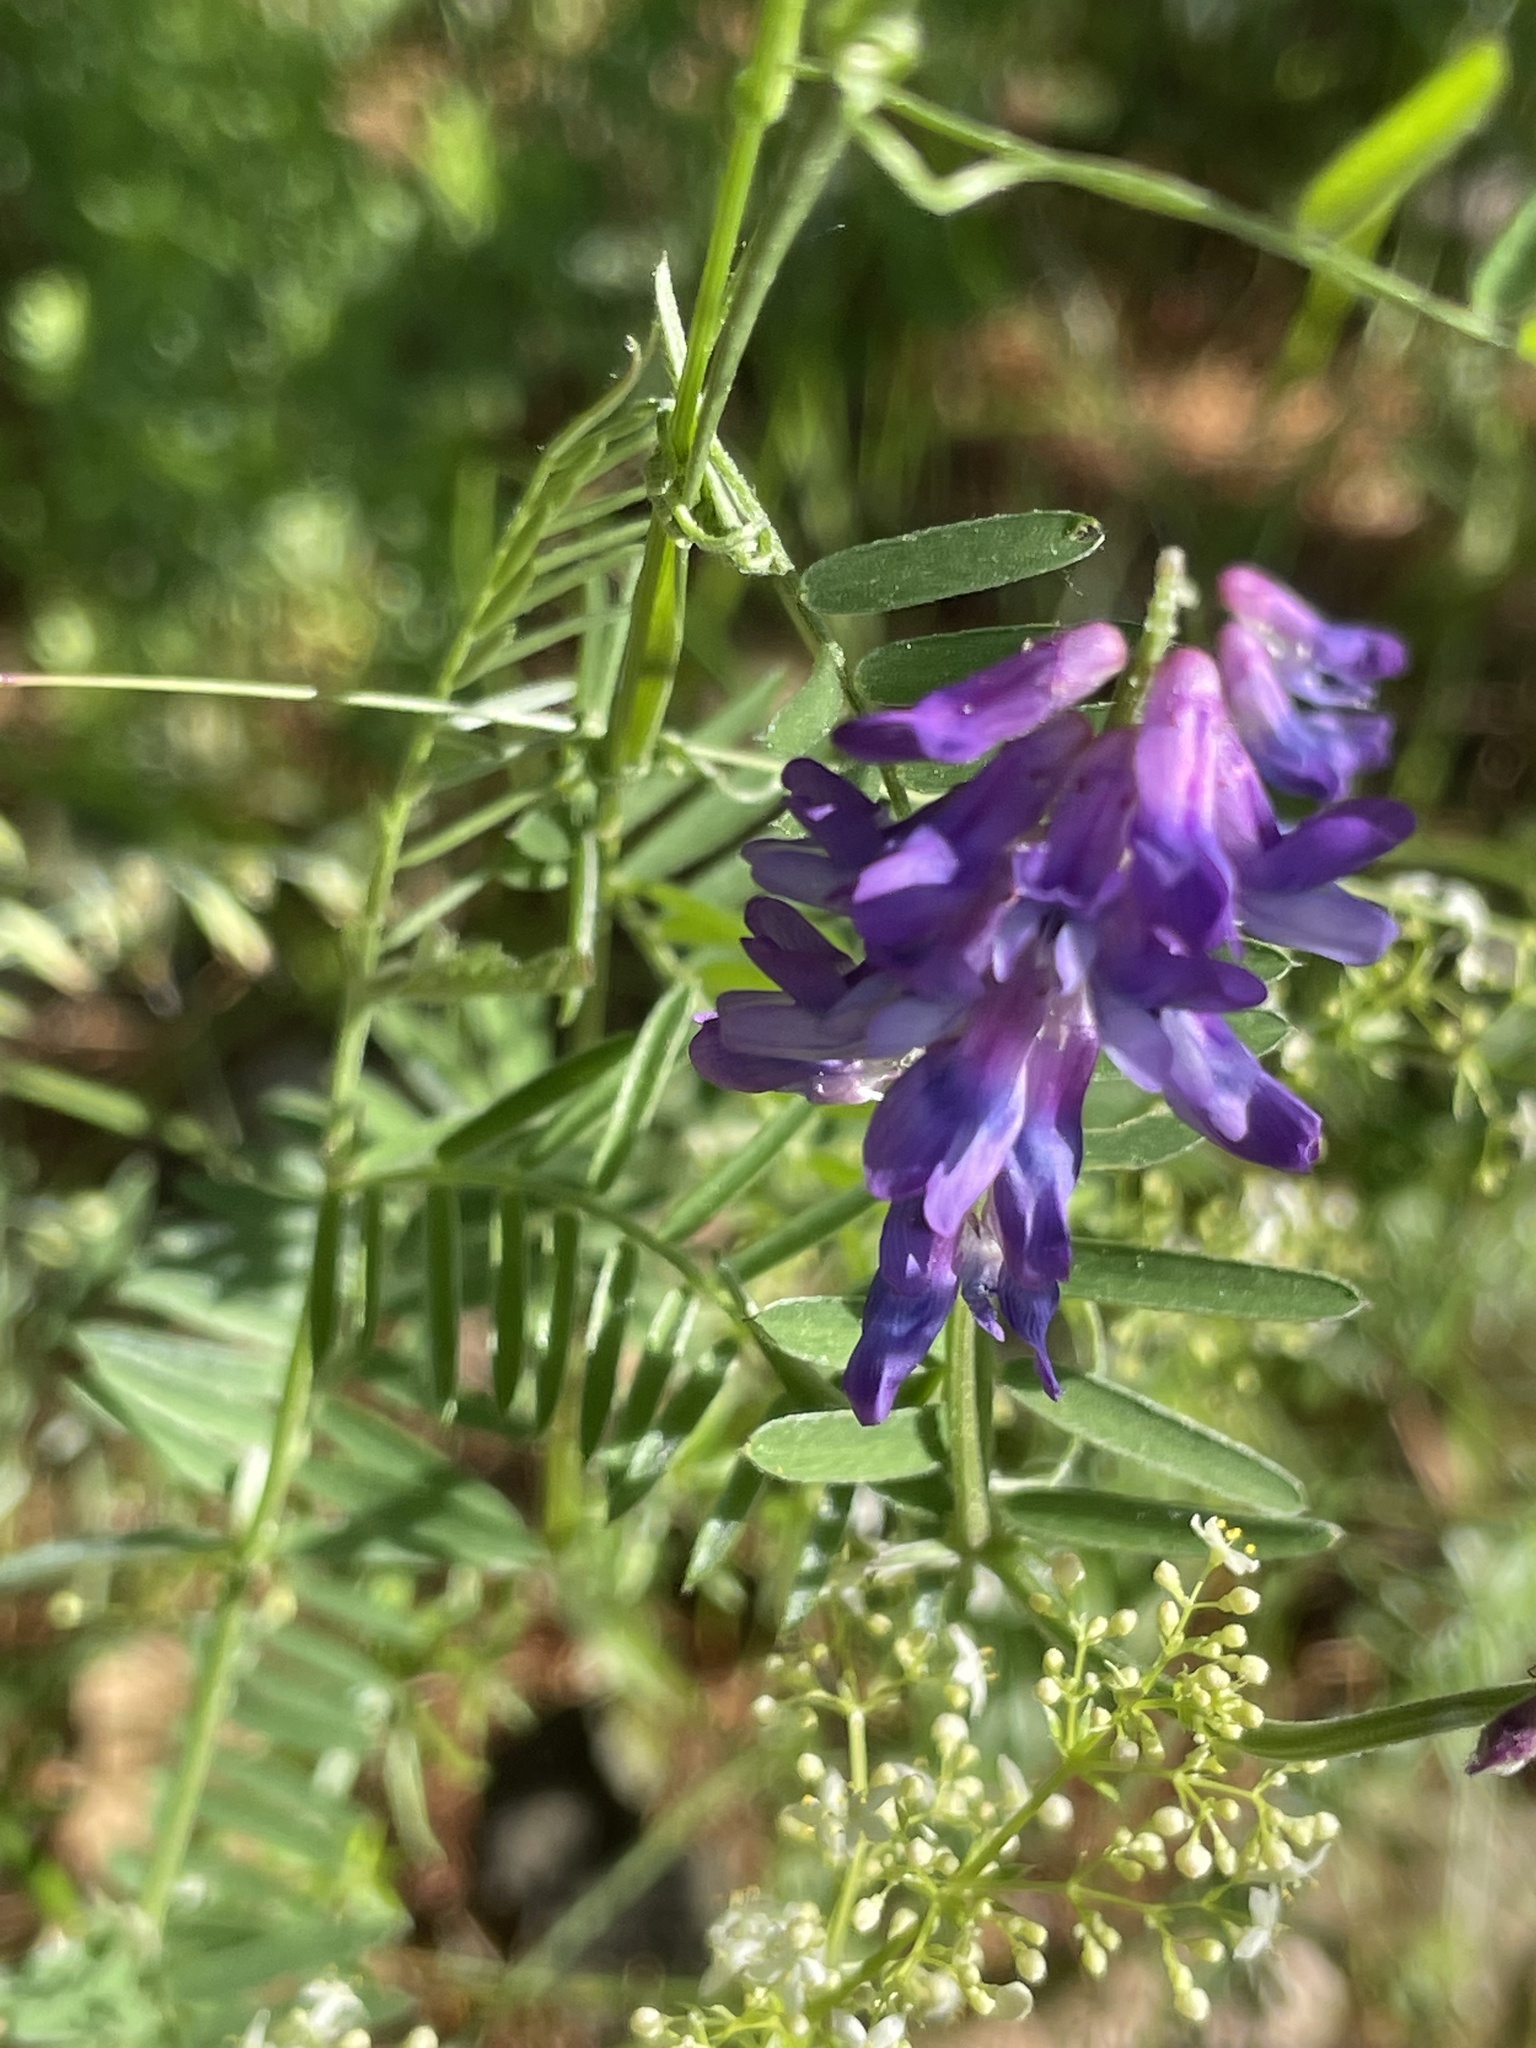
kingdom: Plantae
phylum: Tracheophyta
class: Magnoliopsida
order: Fabales
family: Fabaceae
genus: Vicia
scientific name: Vicia cracca
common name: Bird vetch
